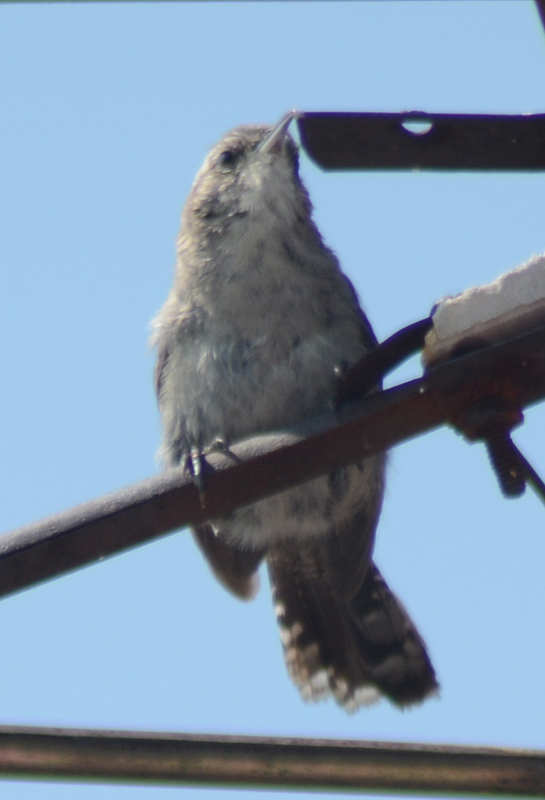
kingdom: Animalia
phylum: Chordata
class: Aves
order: Passeriformes
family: Troglodytidae
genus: Thryomanes
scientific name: Thryomanes bewickii
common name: Bewick's wren
